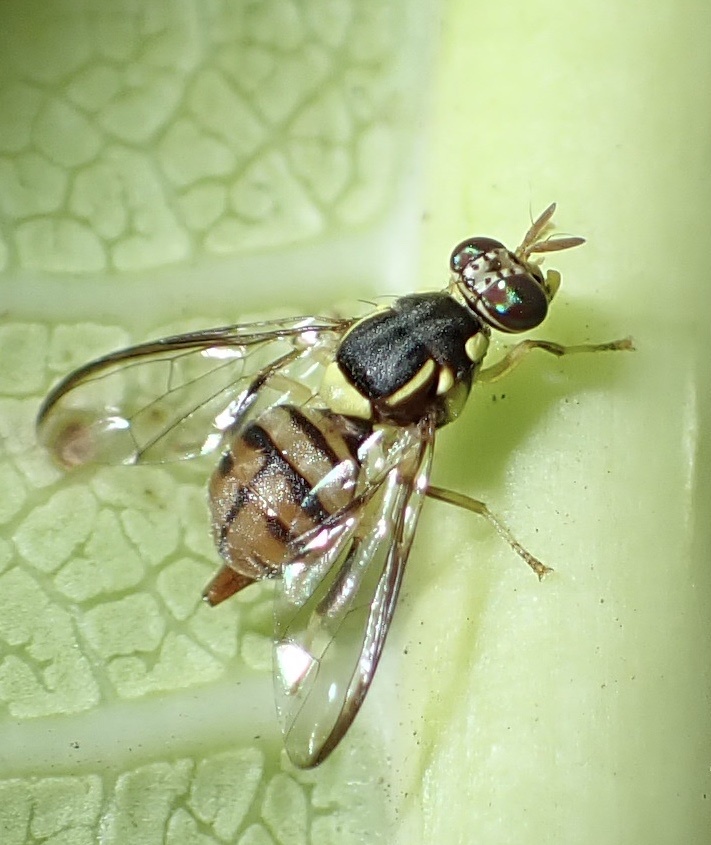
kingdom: Animalia
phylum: Arthropoda
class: Insecta
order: Diptera
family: Tephritidae
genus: Bactrocera
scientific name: Bactrocera dorsalis
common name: Oriental fruit fly
